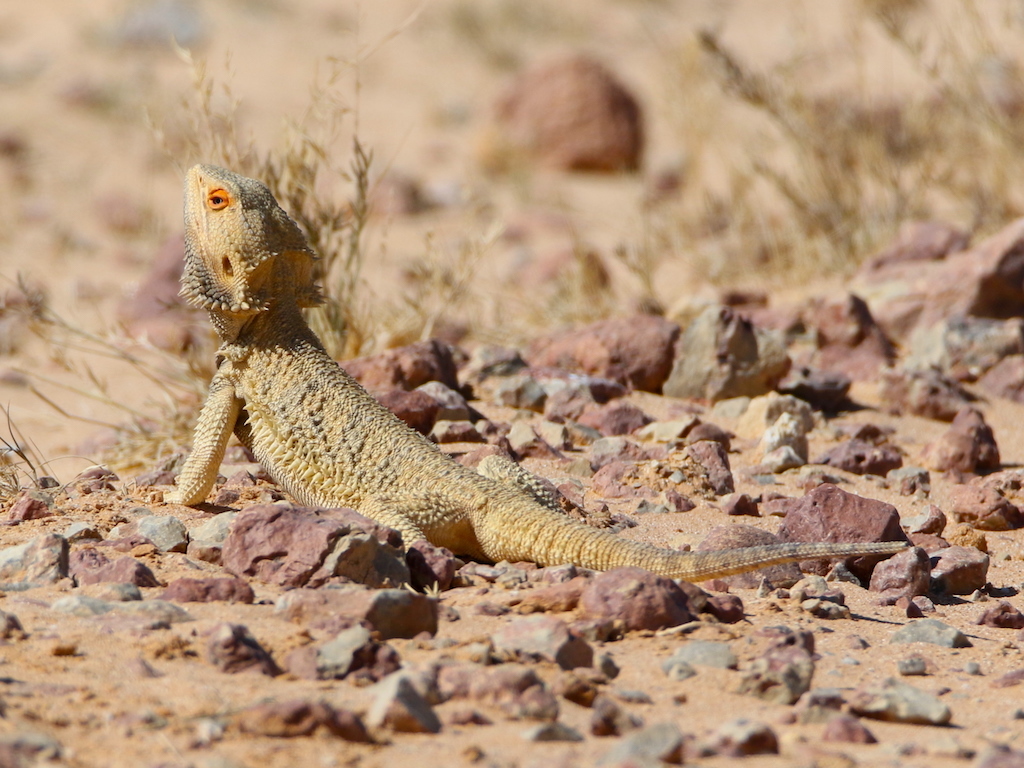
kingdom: Animalia
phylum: Chordata
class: Squamata
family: Agamidae
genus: Pogona
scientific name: Pogona vitticeps
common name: Central bearded dragon
